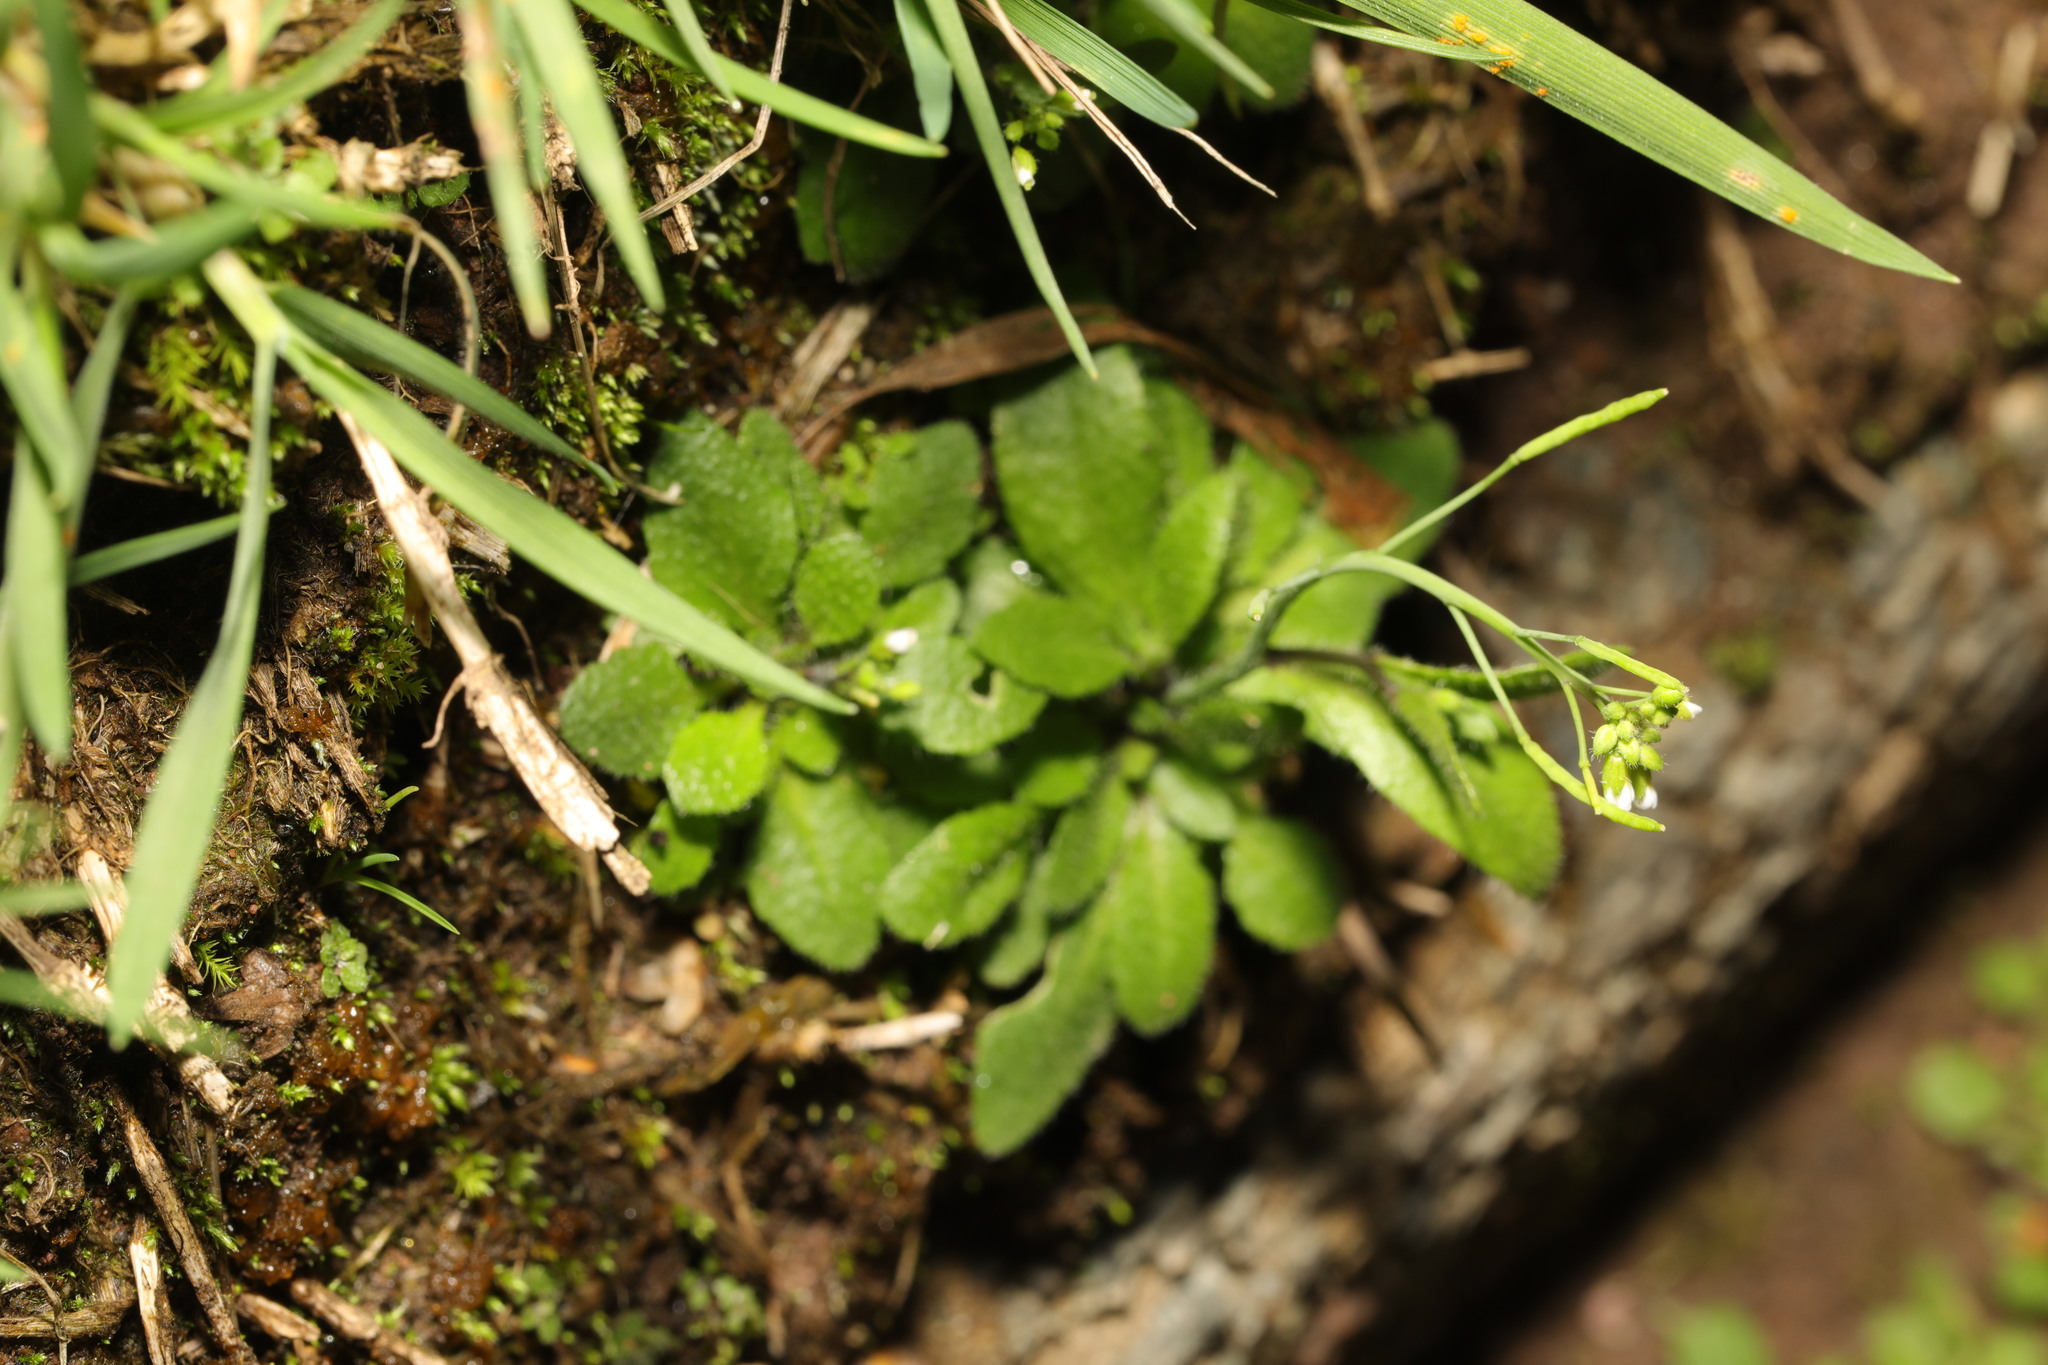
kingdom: Plantae
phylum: Tracheophyta
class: Magnoliopsida
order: Brassicales
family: Brassicaceae
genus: Arabidopsis
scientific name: Arabidopsis thaliana
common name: Thale cress
